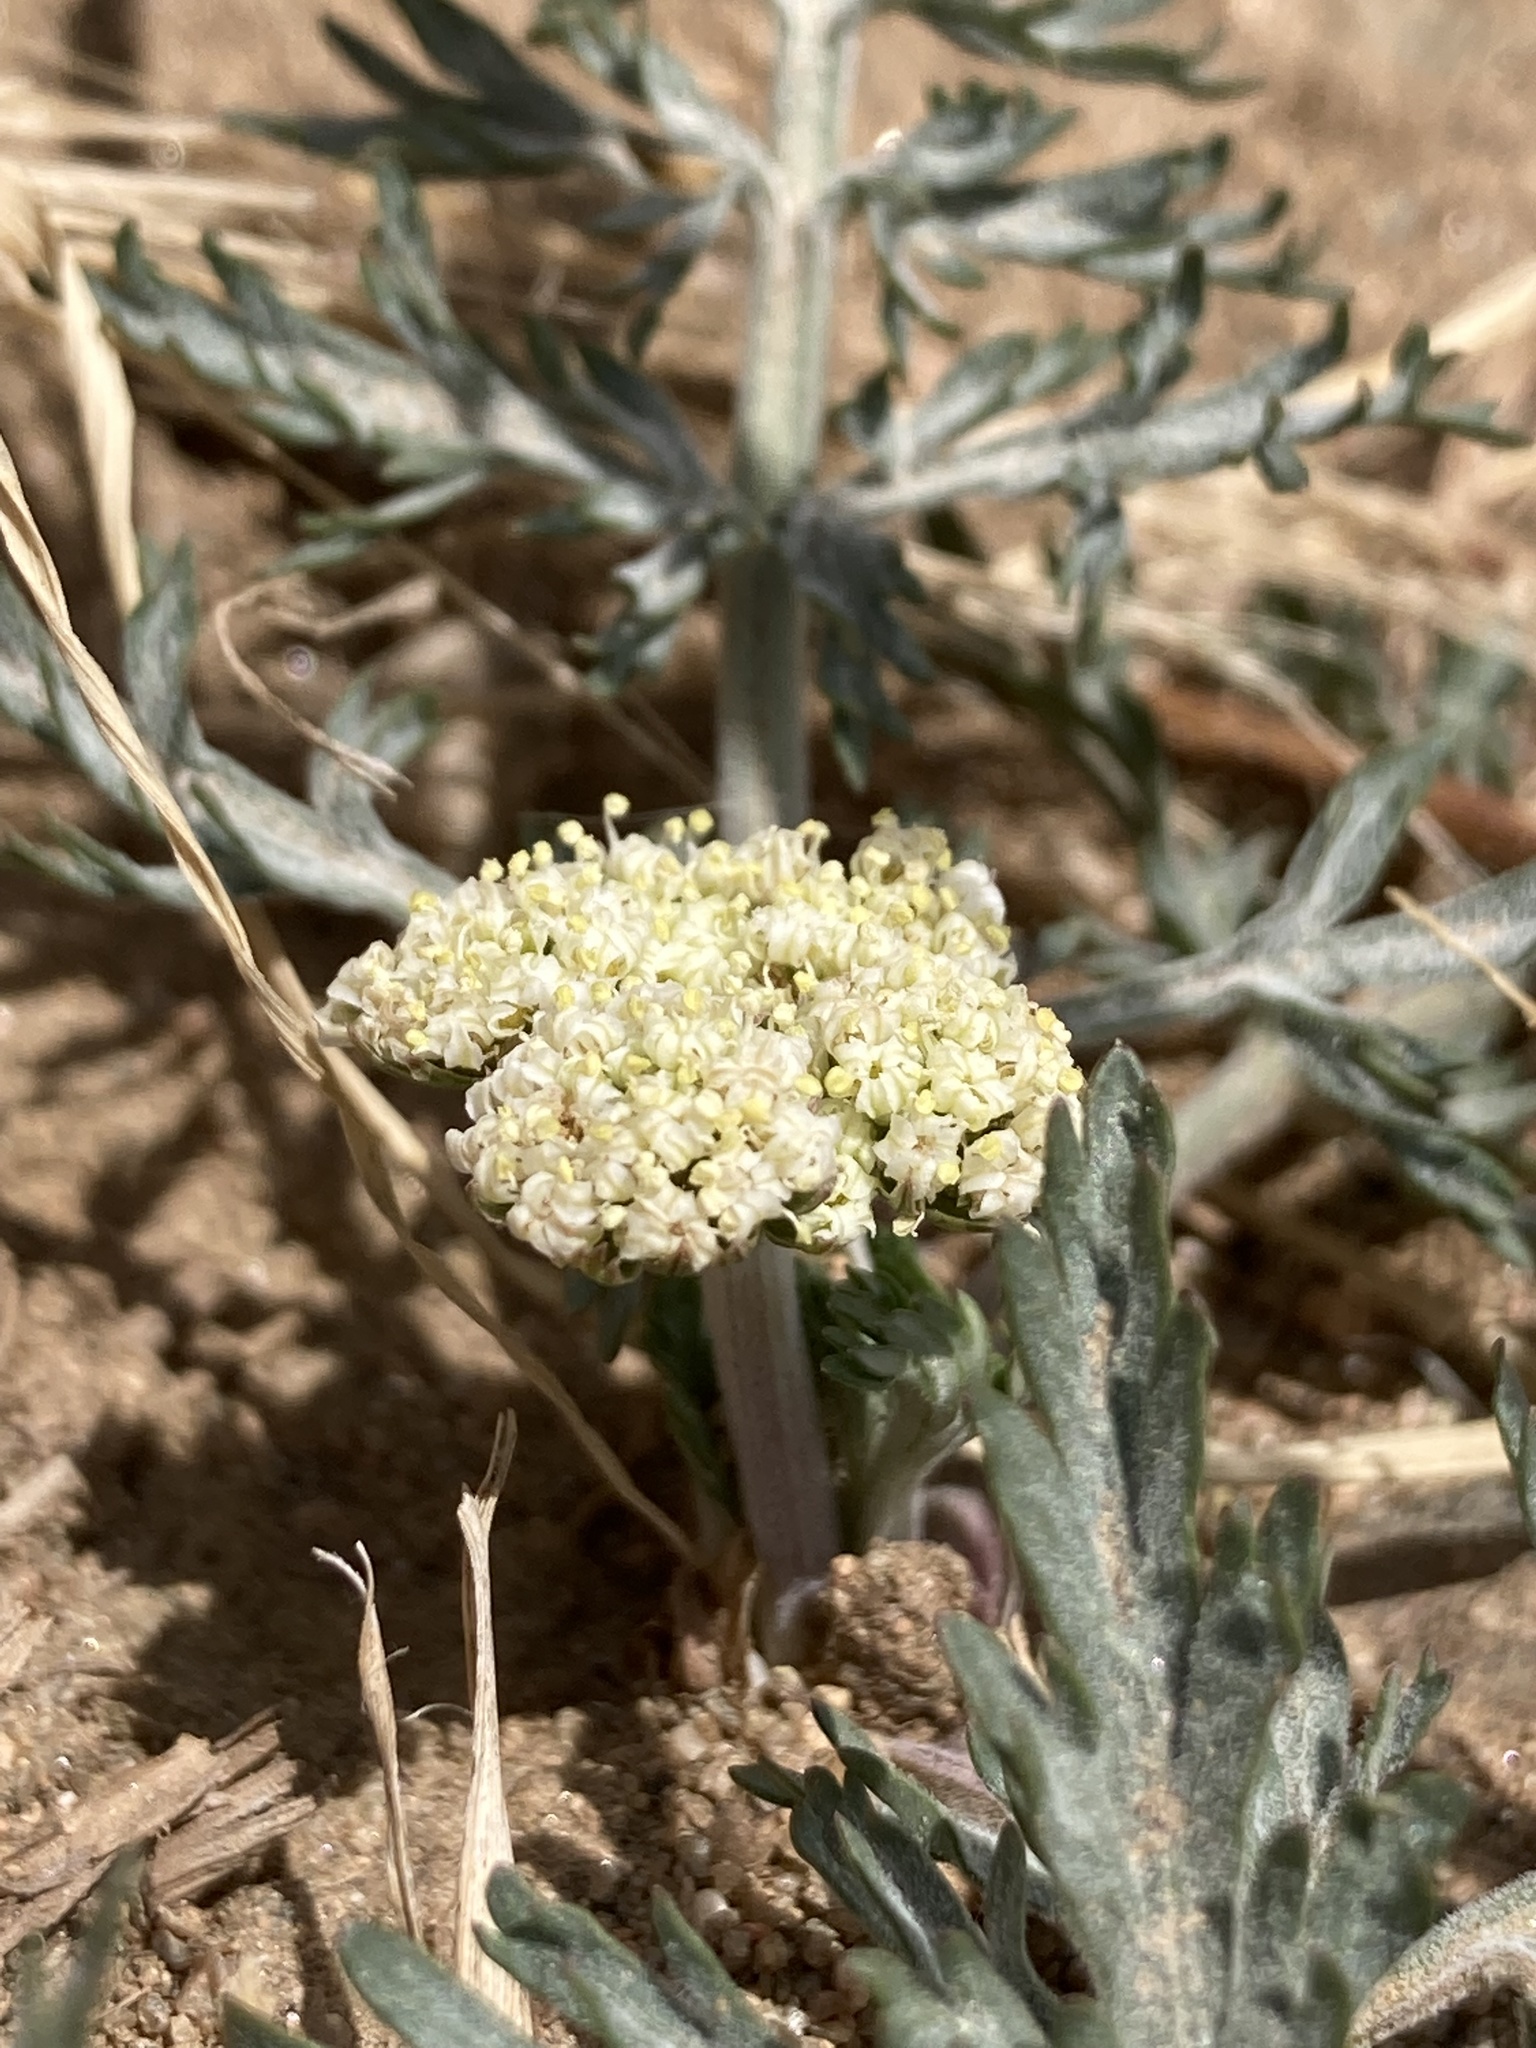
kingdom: Plantae
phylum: Tracheophyta
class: Magnoliopsida
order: Apiales
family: Apiaceae
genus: Lomatium
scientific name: Lomatium orientale
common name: Eastern cous
